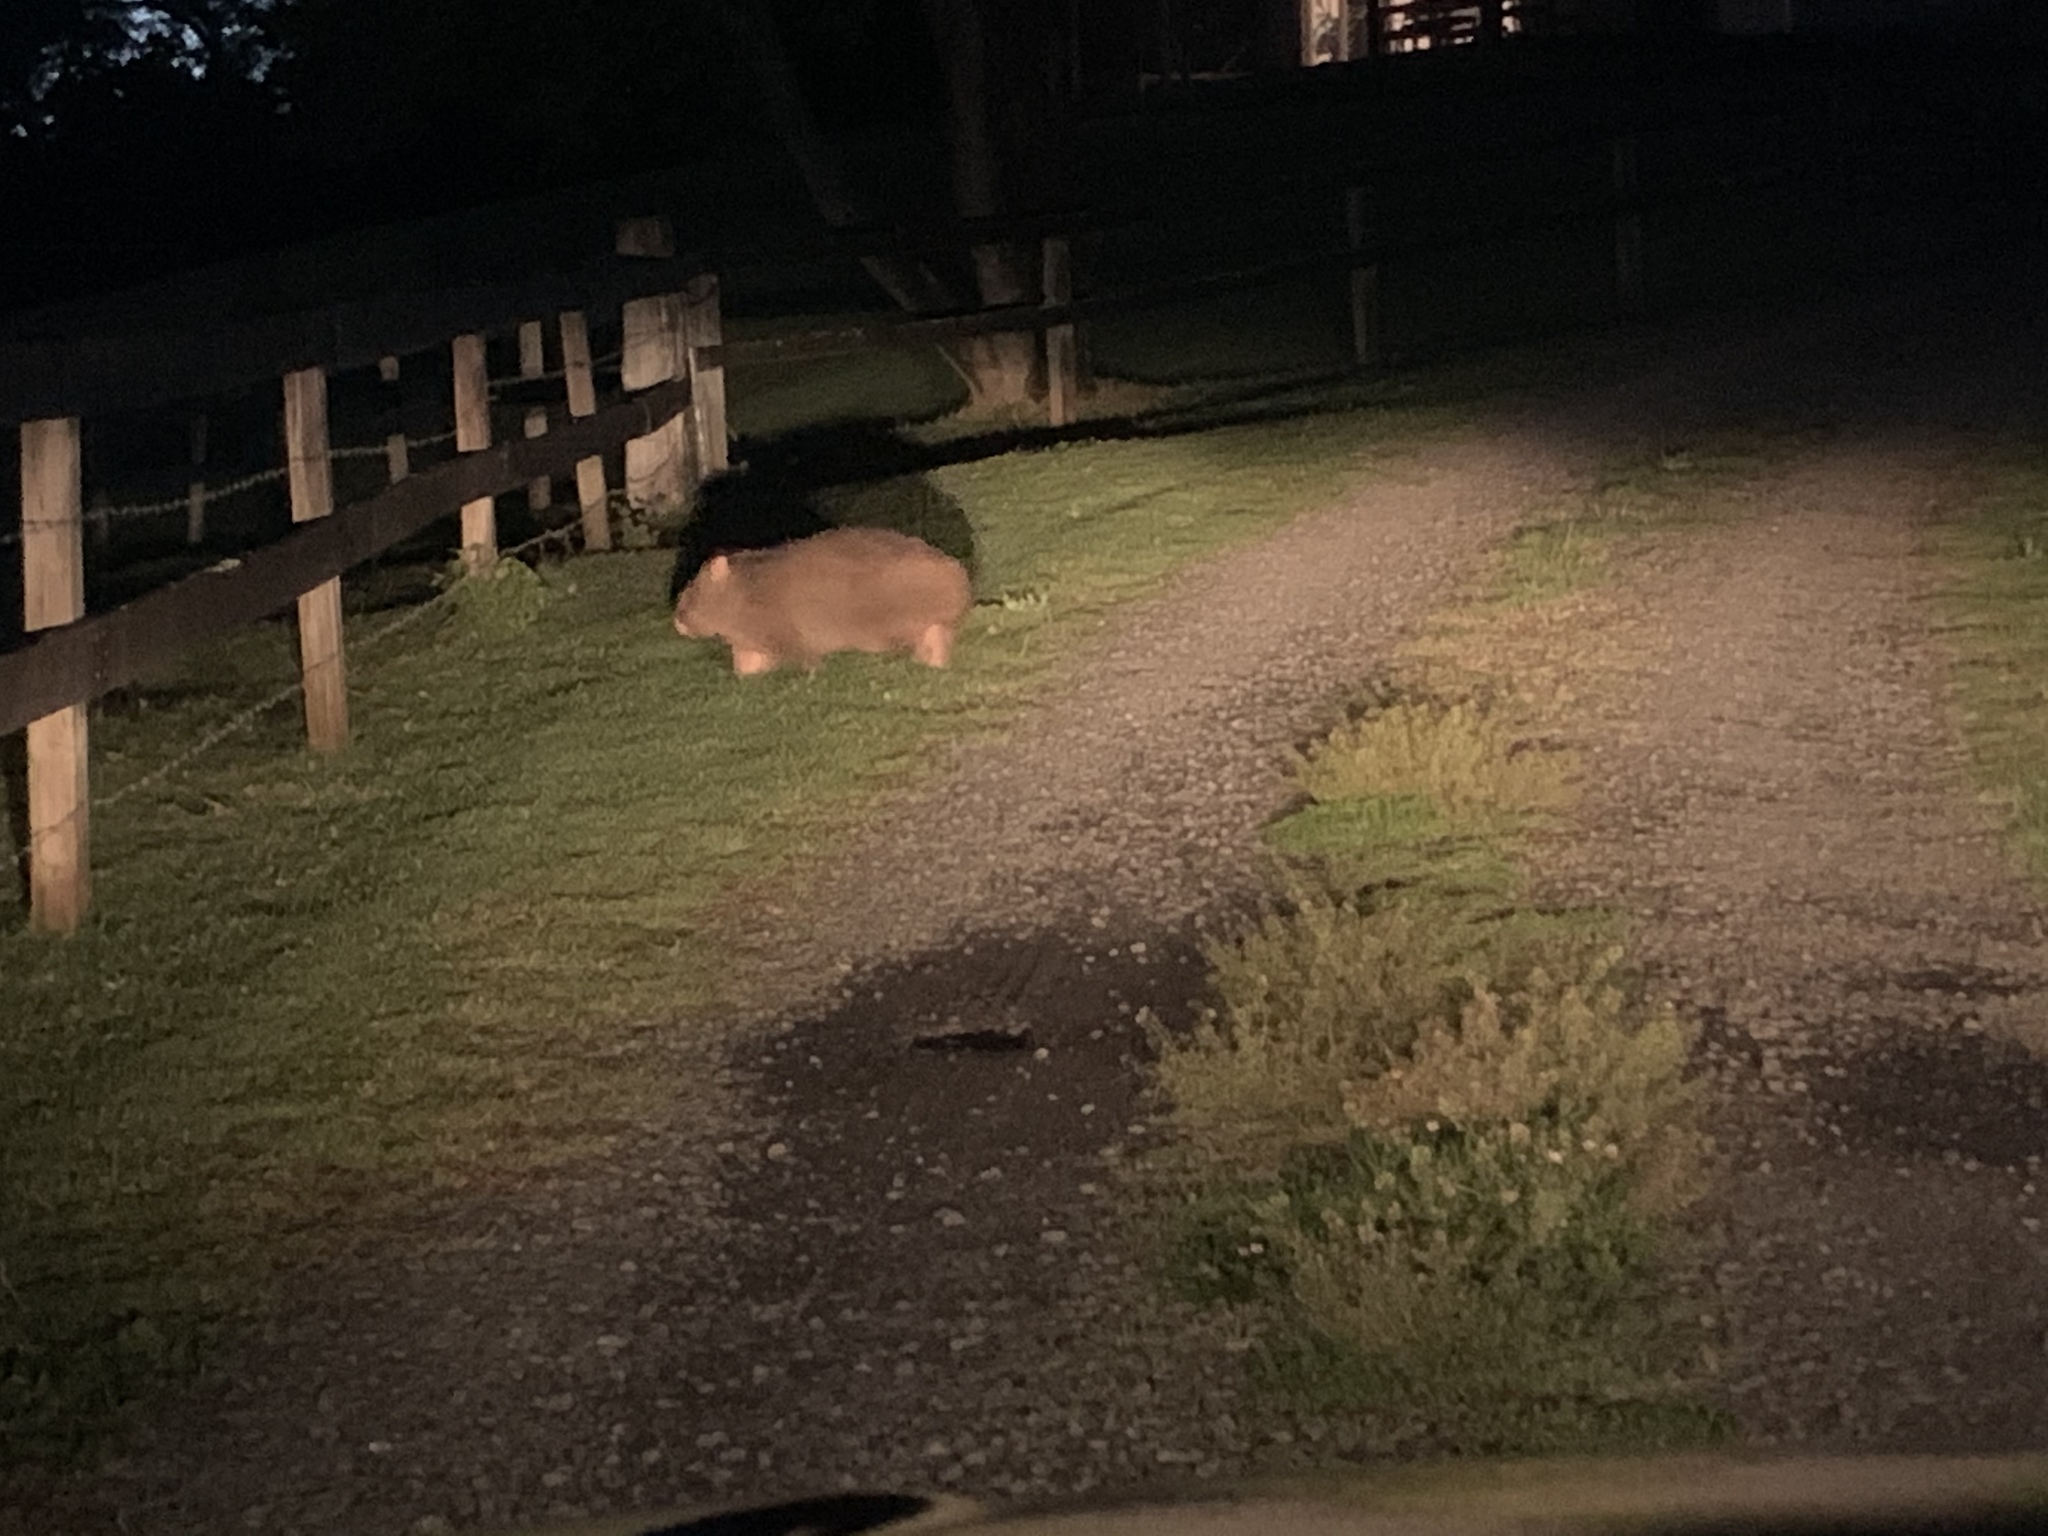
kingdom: Animalia
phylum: Chordata
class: Mammalia
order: Diprotodontia
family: Vombatidae
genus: Vombatus
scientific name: Vombatus ursinus
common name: Common wombat
